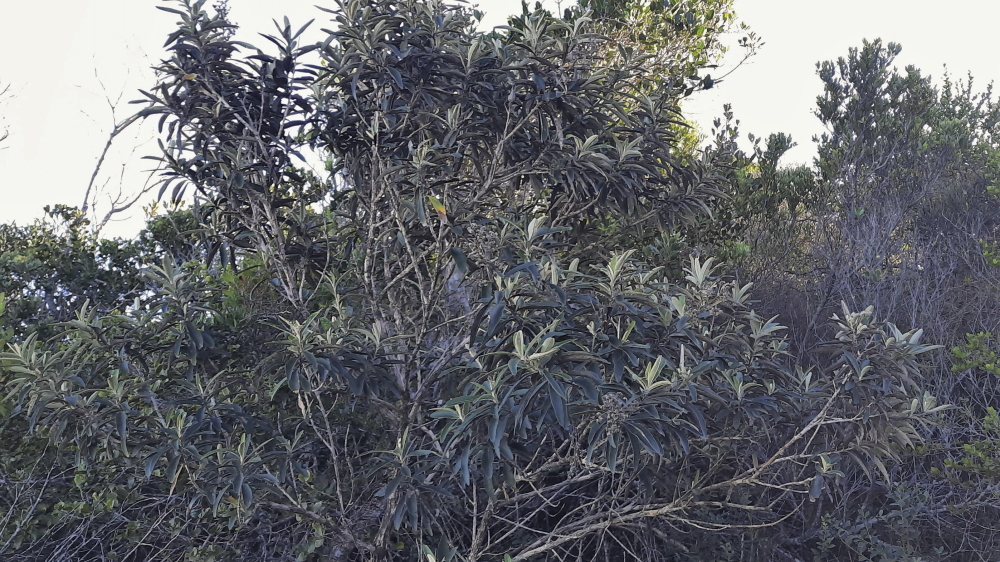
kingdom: Plantae
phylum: Tracheophyta
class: Magnoliopsida
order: Asterales
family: Asteraceae
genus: Tarchonanthus
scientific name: Tarchonanthus littoralis
